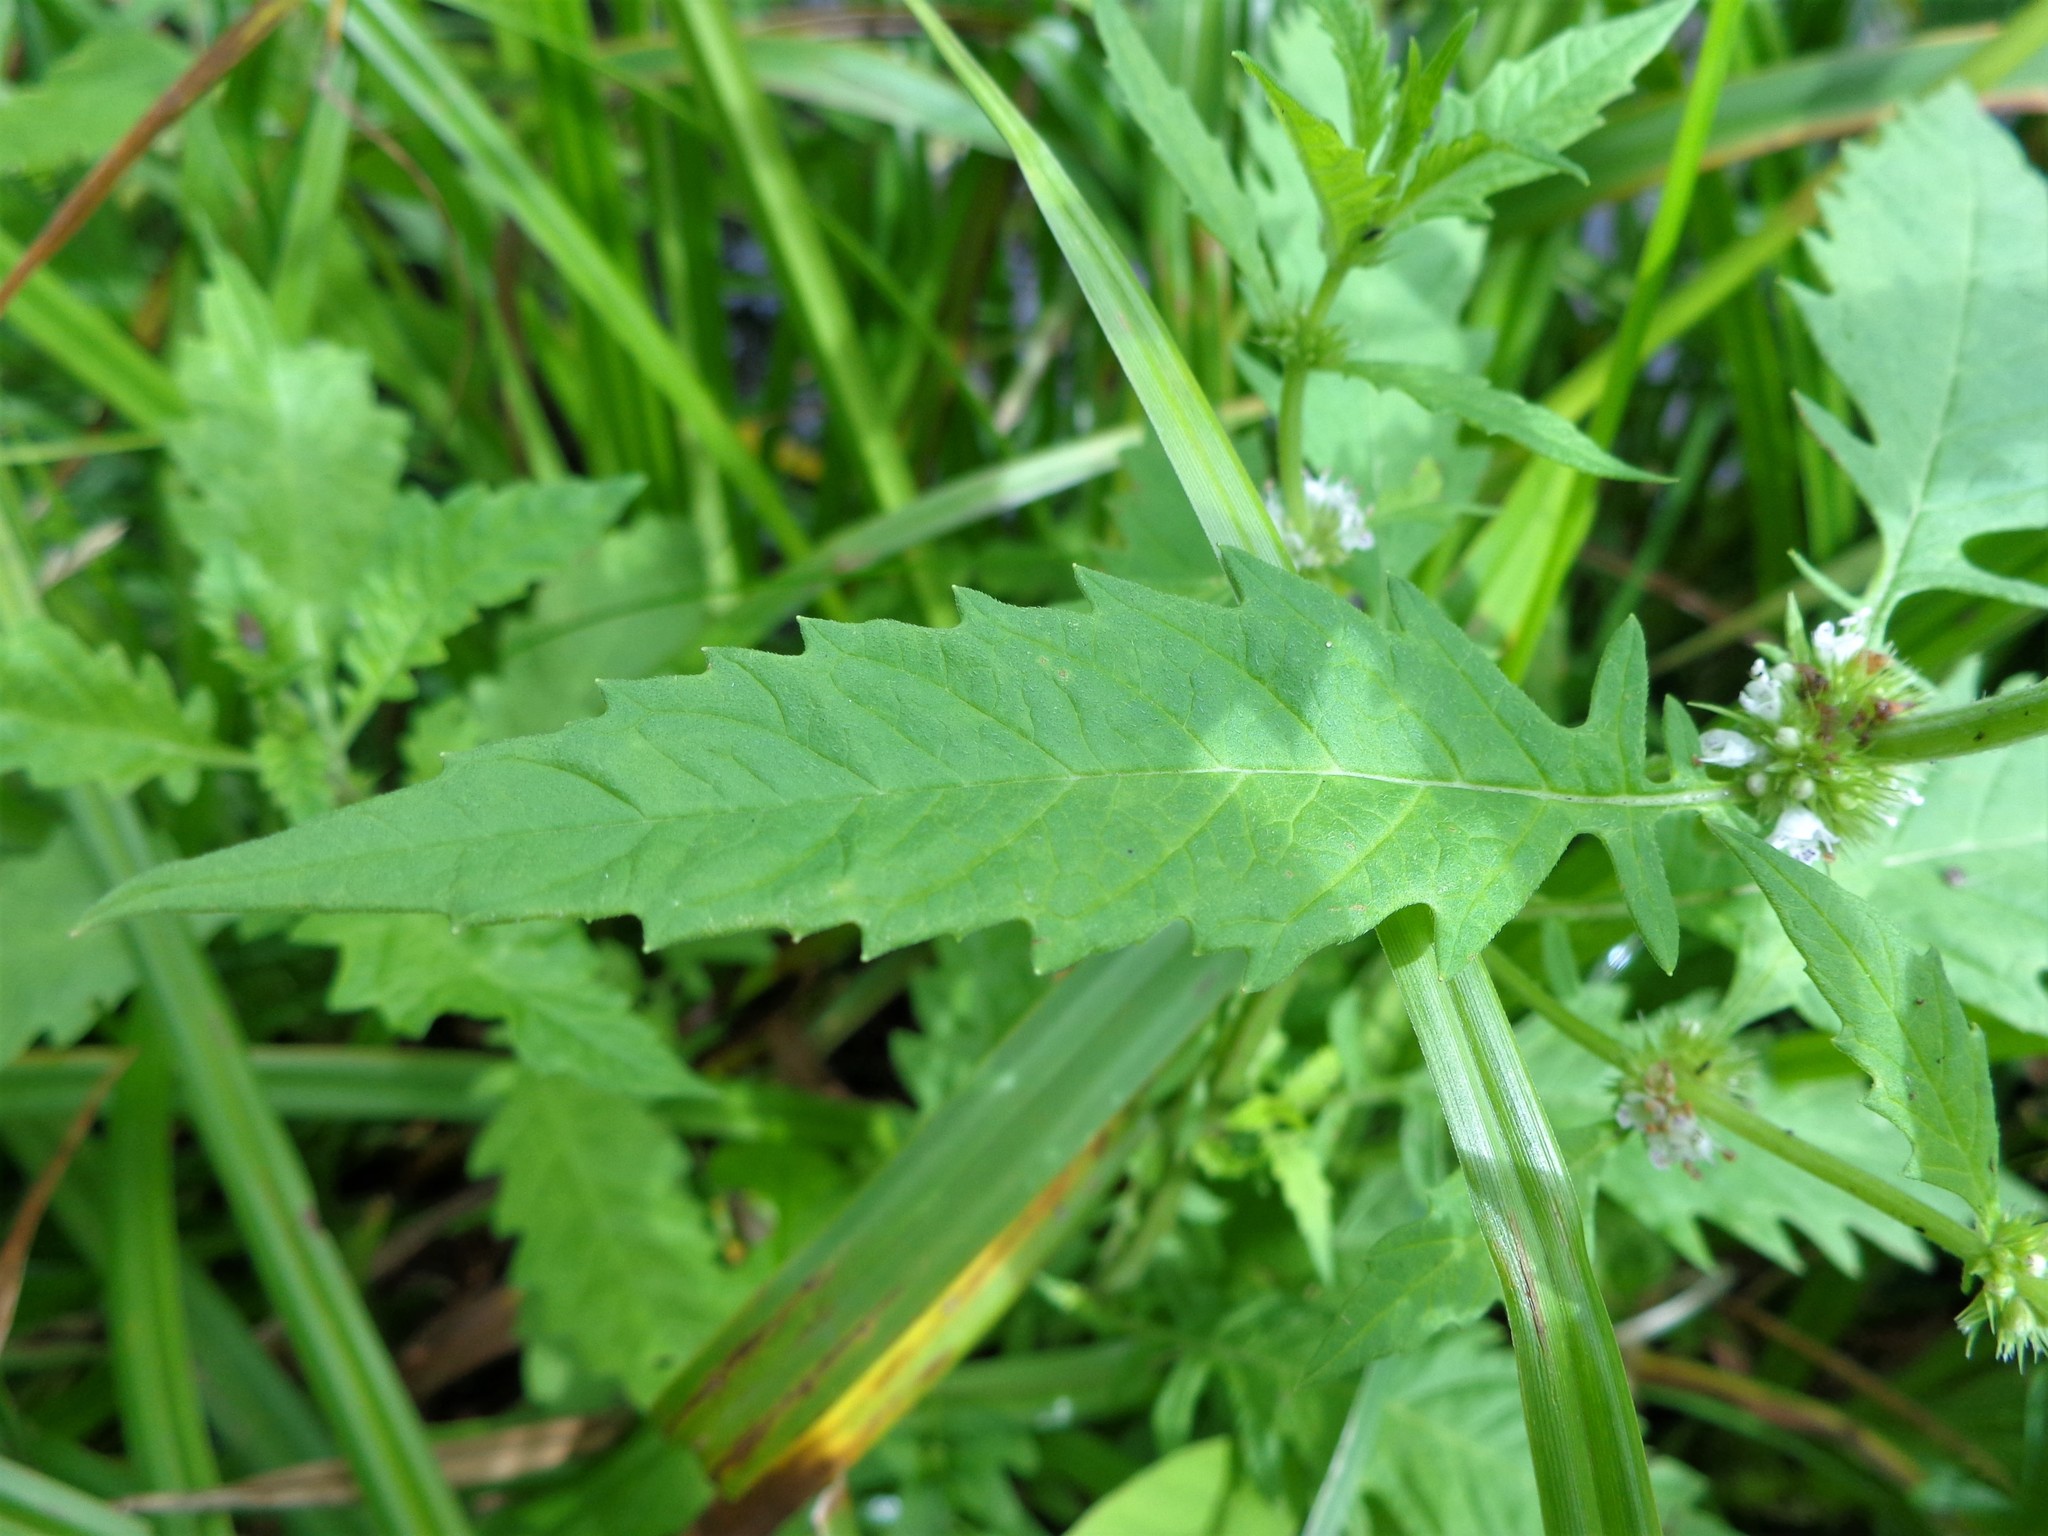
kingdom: Plantae
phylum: Tracheophyta
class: Magnoliopsida
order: Lamiales
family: Lamiaceae
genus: Lycopus
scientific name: Lycopus europaeus
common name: European bugleweed
